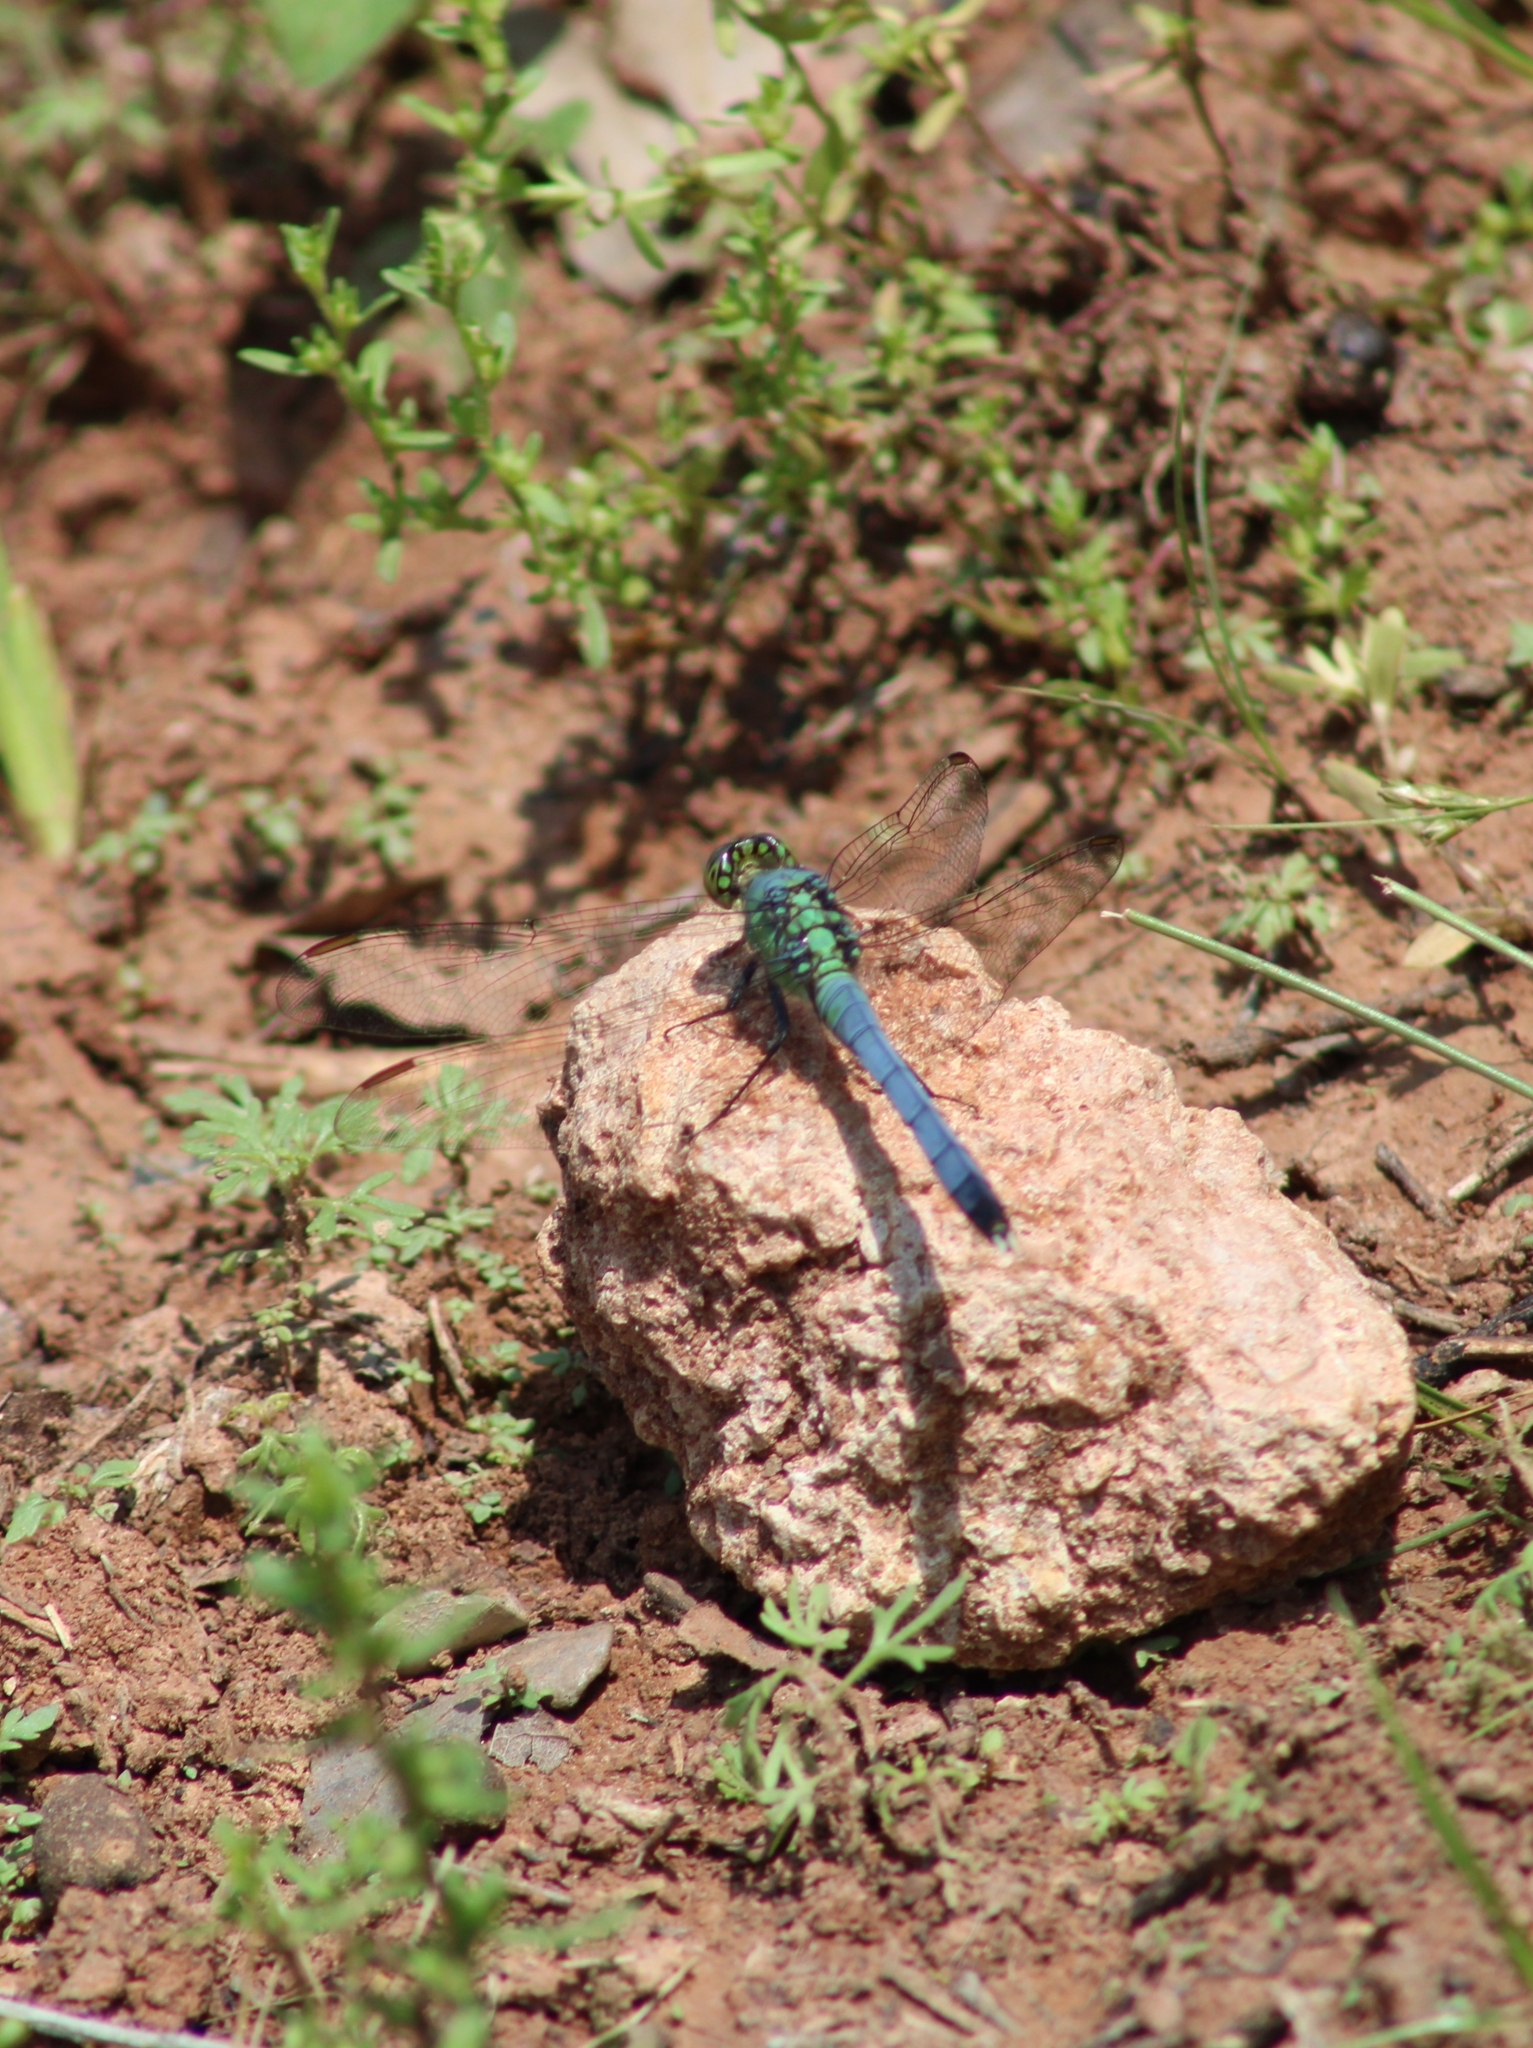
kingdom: Animalia
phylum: Arthropoda
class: Insecta
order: Odonata
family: Libellulidae
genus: Erythemis
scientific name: Erythemis simplicicollis
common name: Eastern pondhawk
